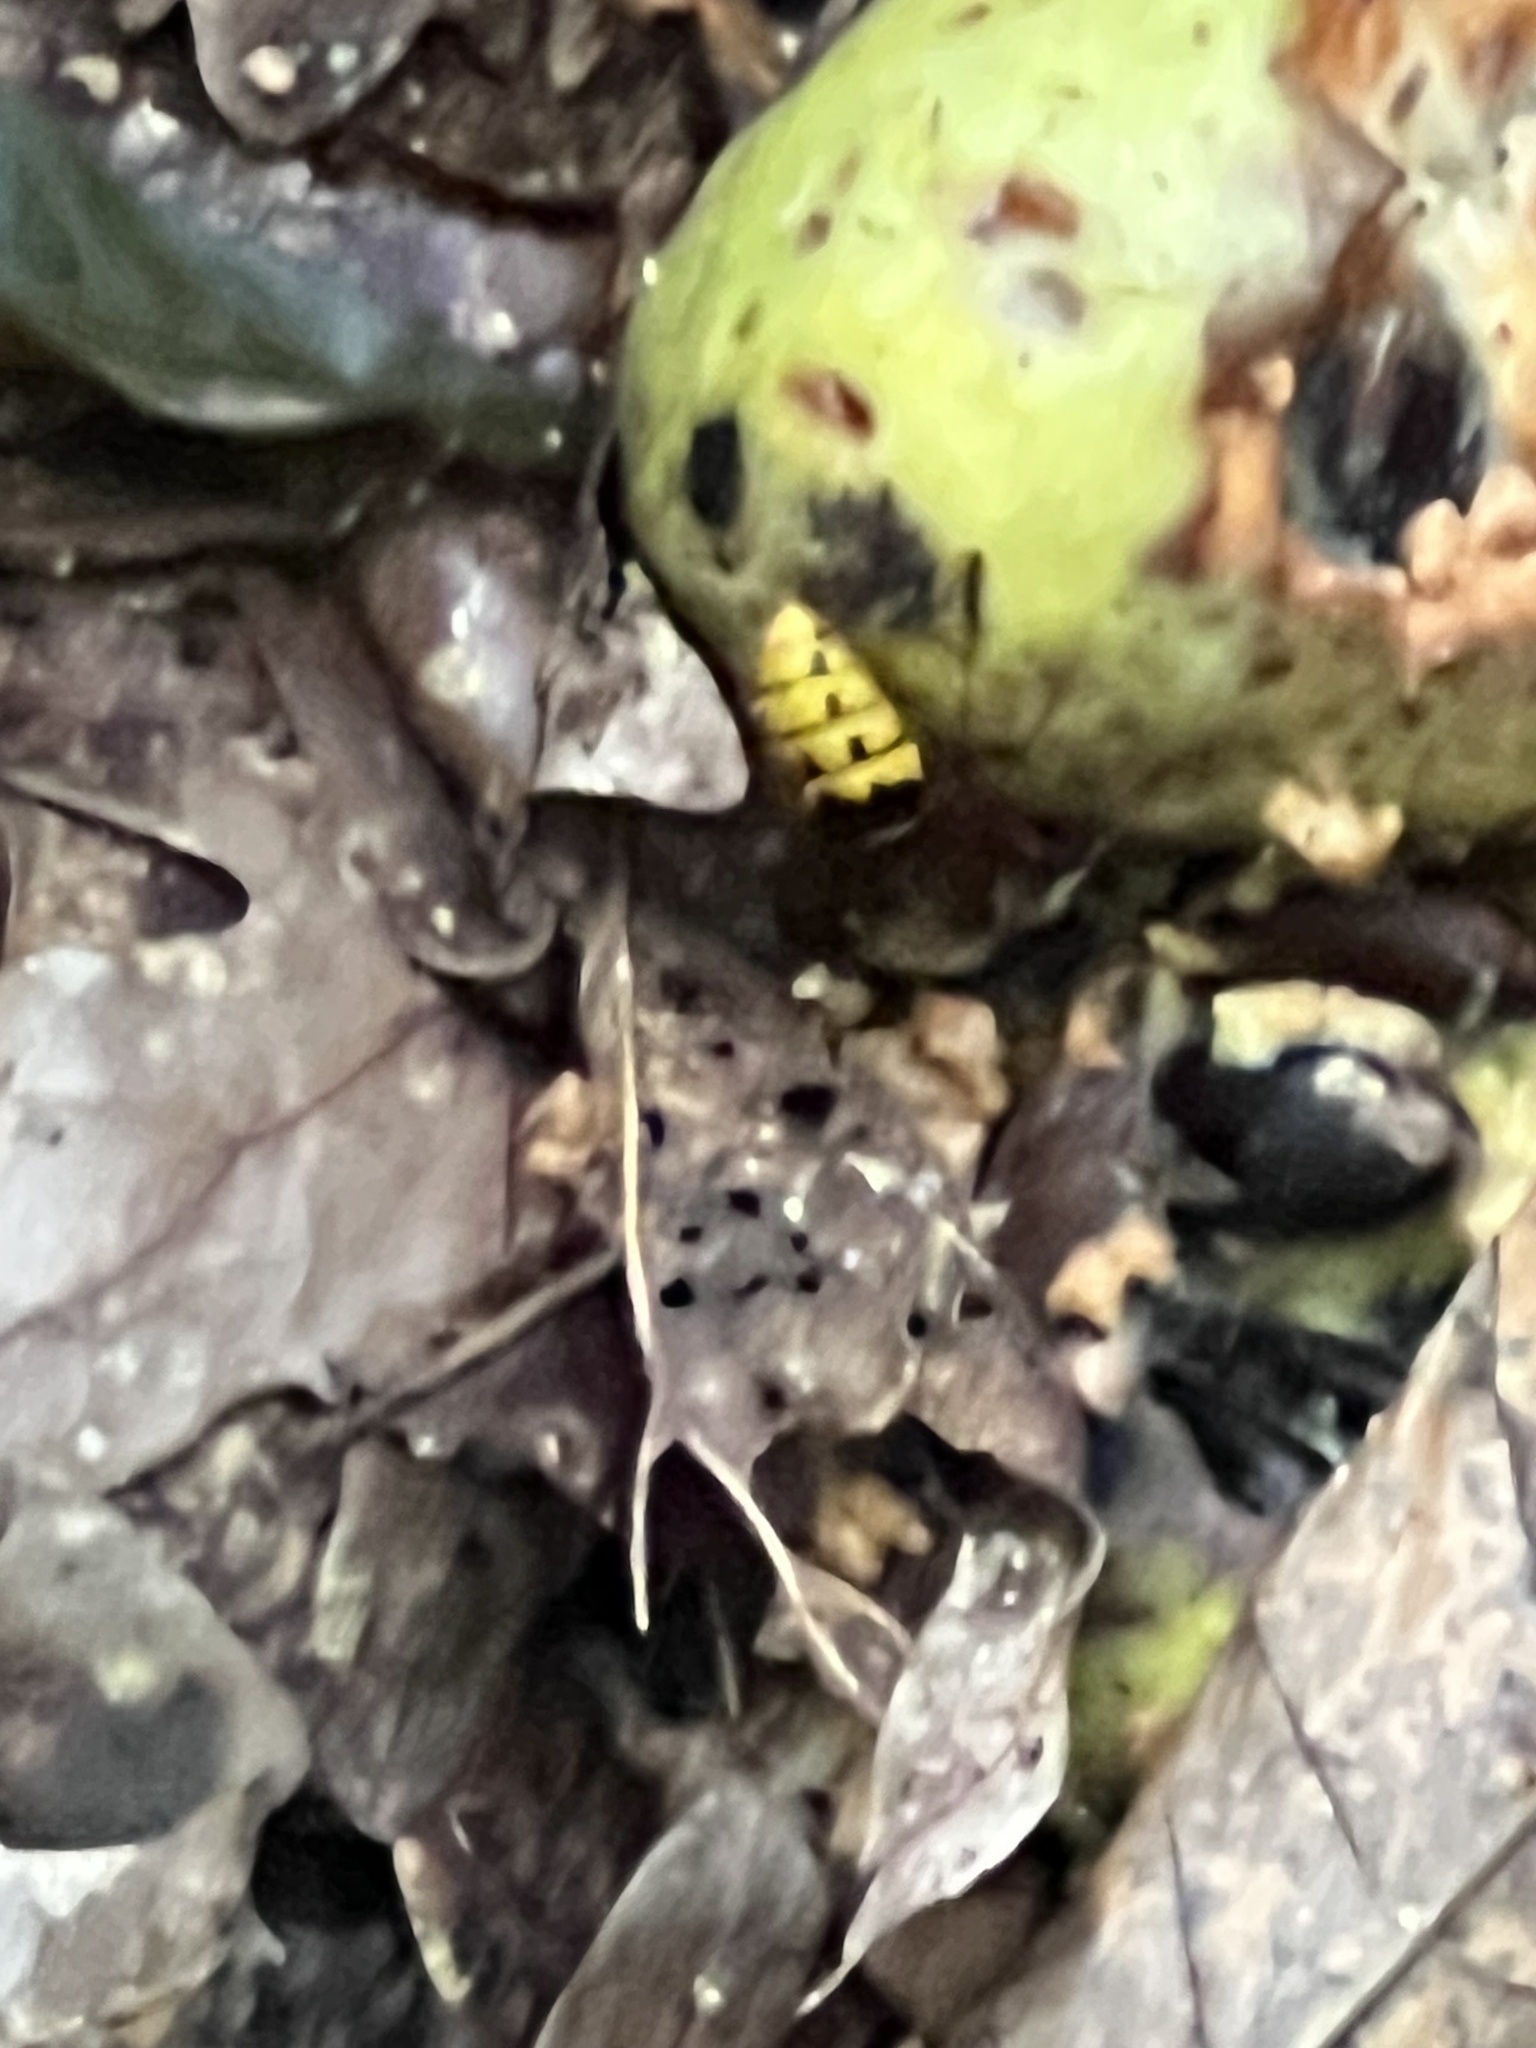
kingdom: Animalia
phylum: Arthropoda
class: Insecta
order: Hymenoptera
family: Vespidae
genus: Vespa
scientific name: Vespa crabro
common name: Hornet
